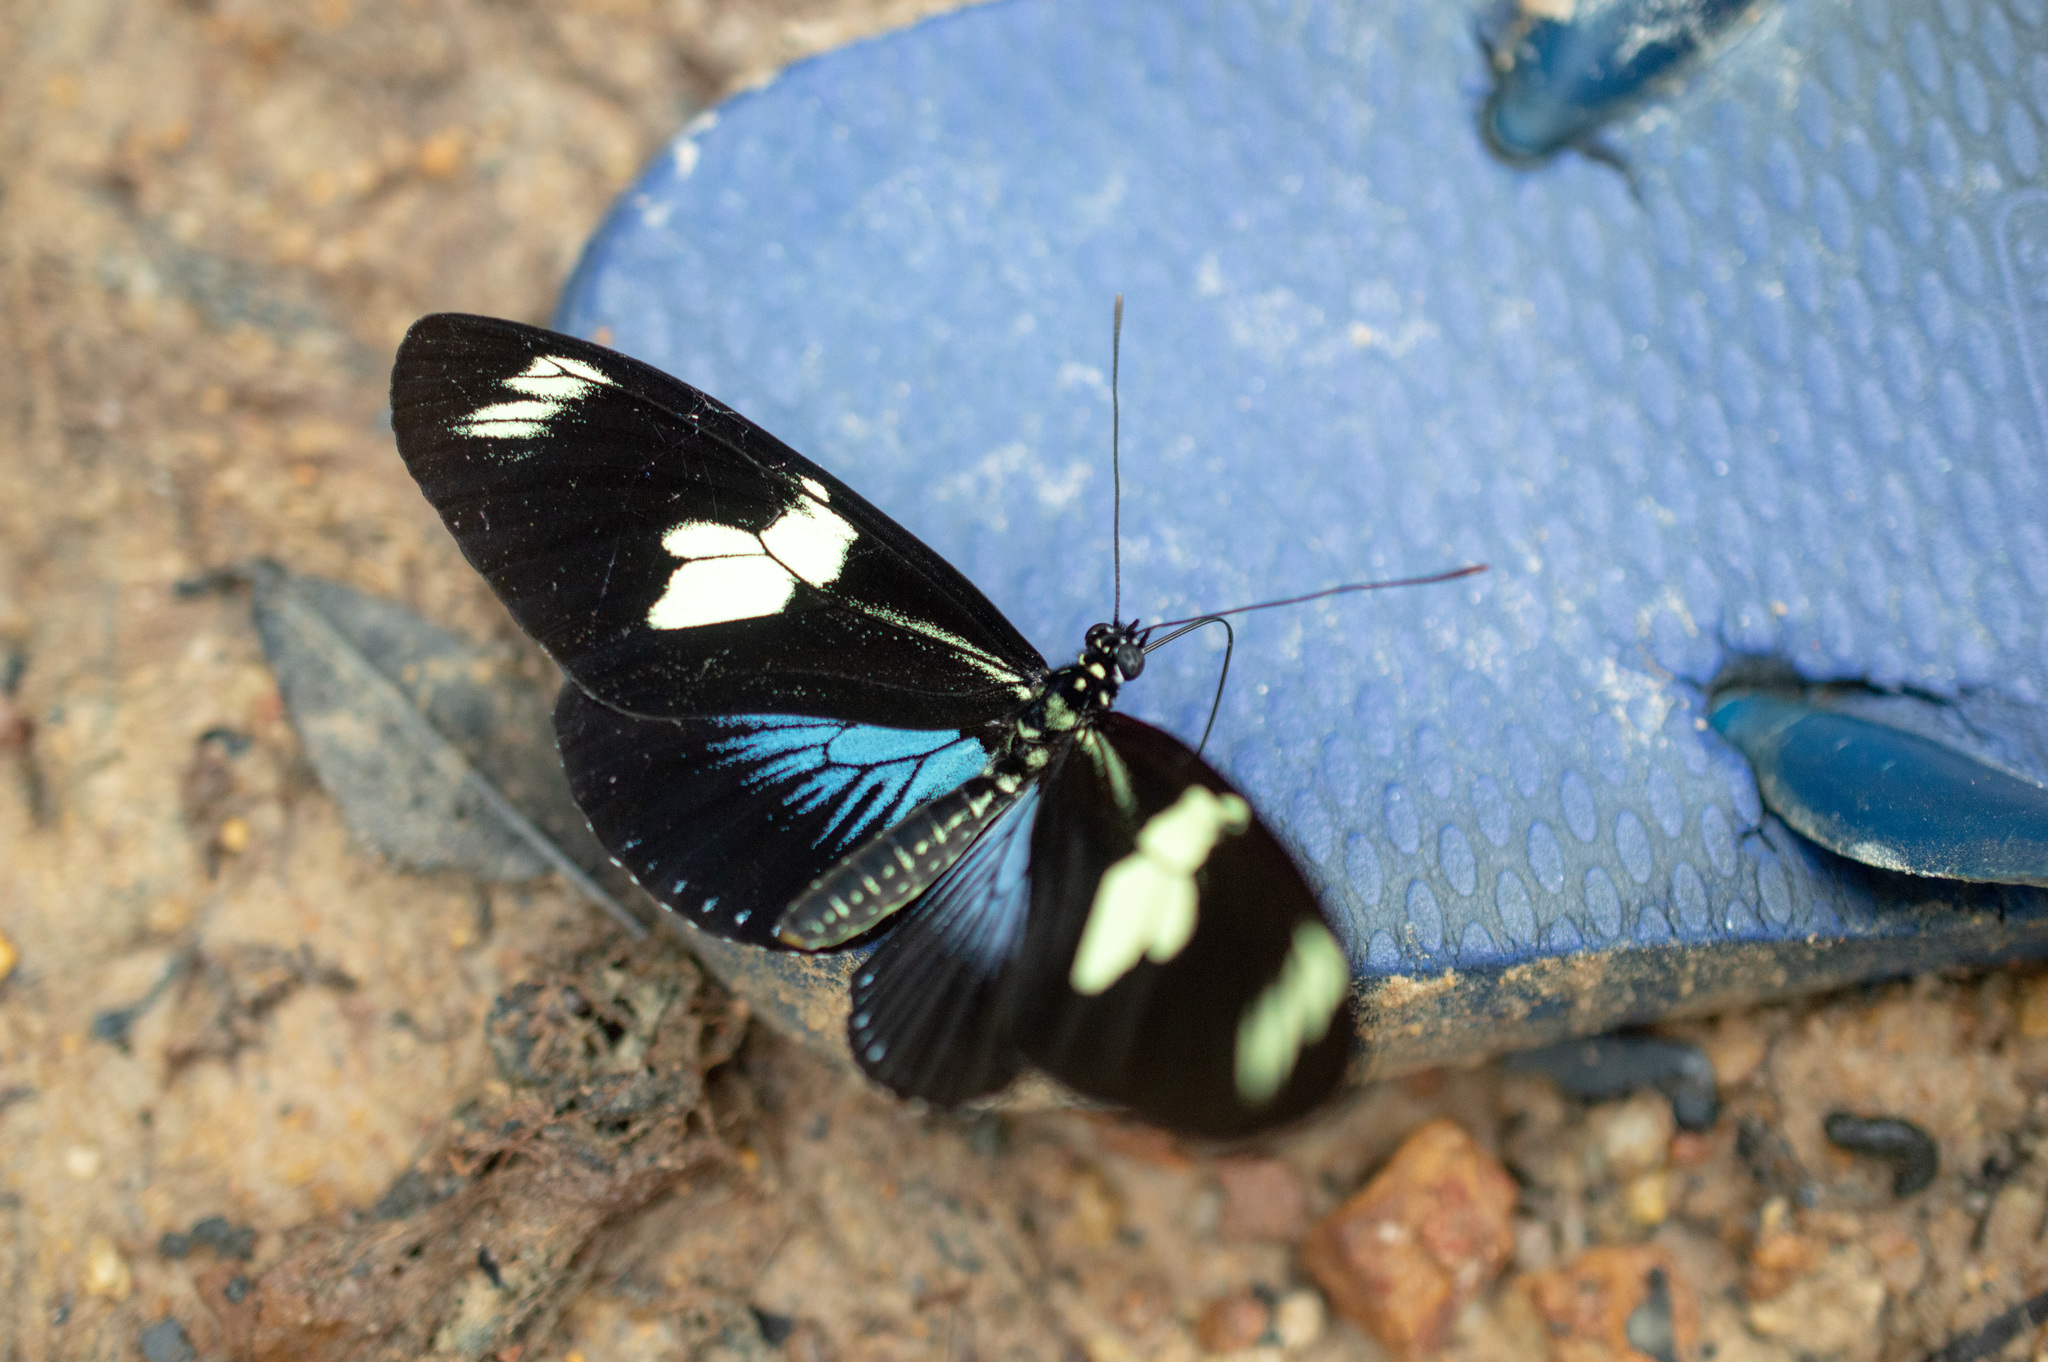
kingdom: Animalia
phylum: Arthropoda
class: Insecta
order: Lepidoptera
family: Nymphalidae
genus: Heliconius
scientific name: Heliconius doris
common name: Doris longwing
